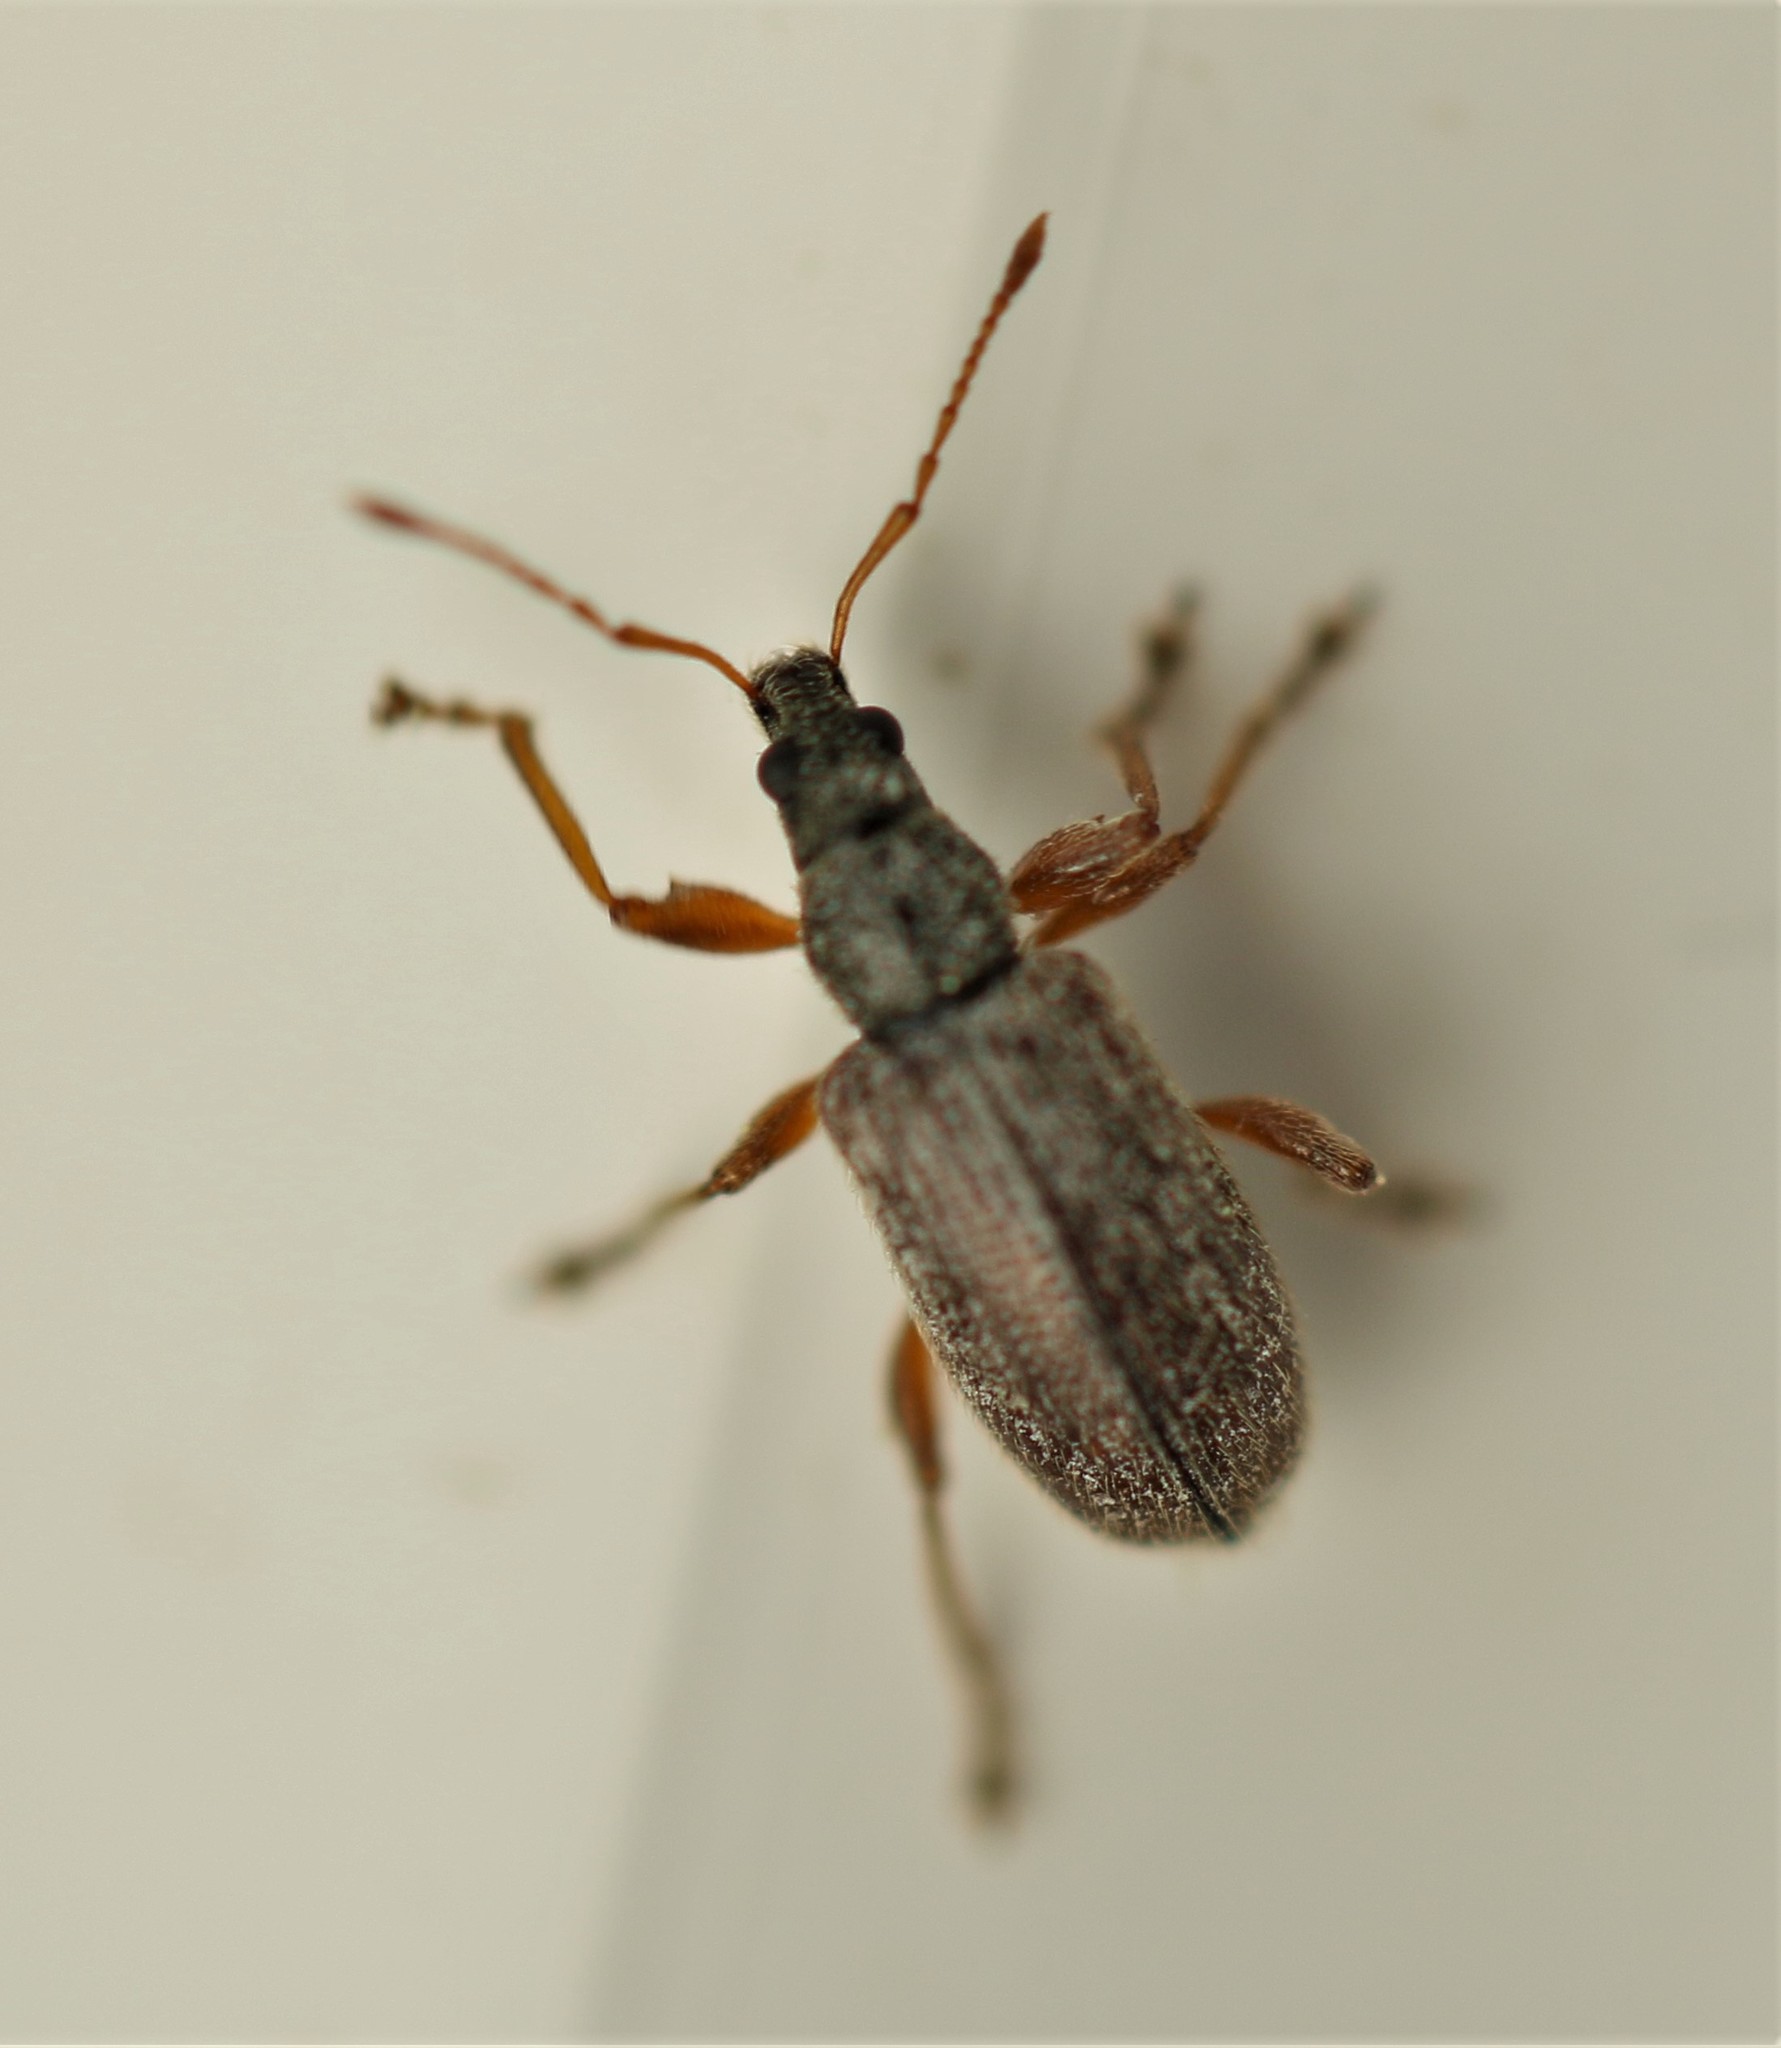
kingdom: Animalia
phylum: Arthropoda
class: Insecta
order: Coleoptera
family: Curculionidae
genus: Phyllobius
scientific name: Phyllobius oblongus
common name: Brown leaf weevil
